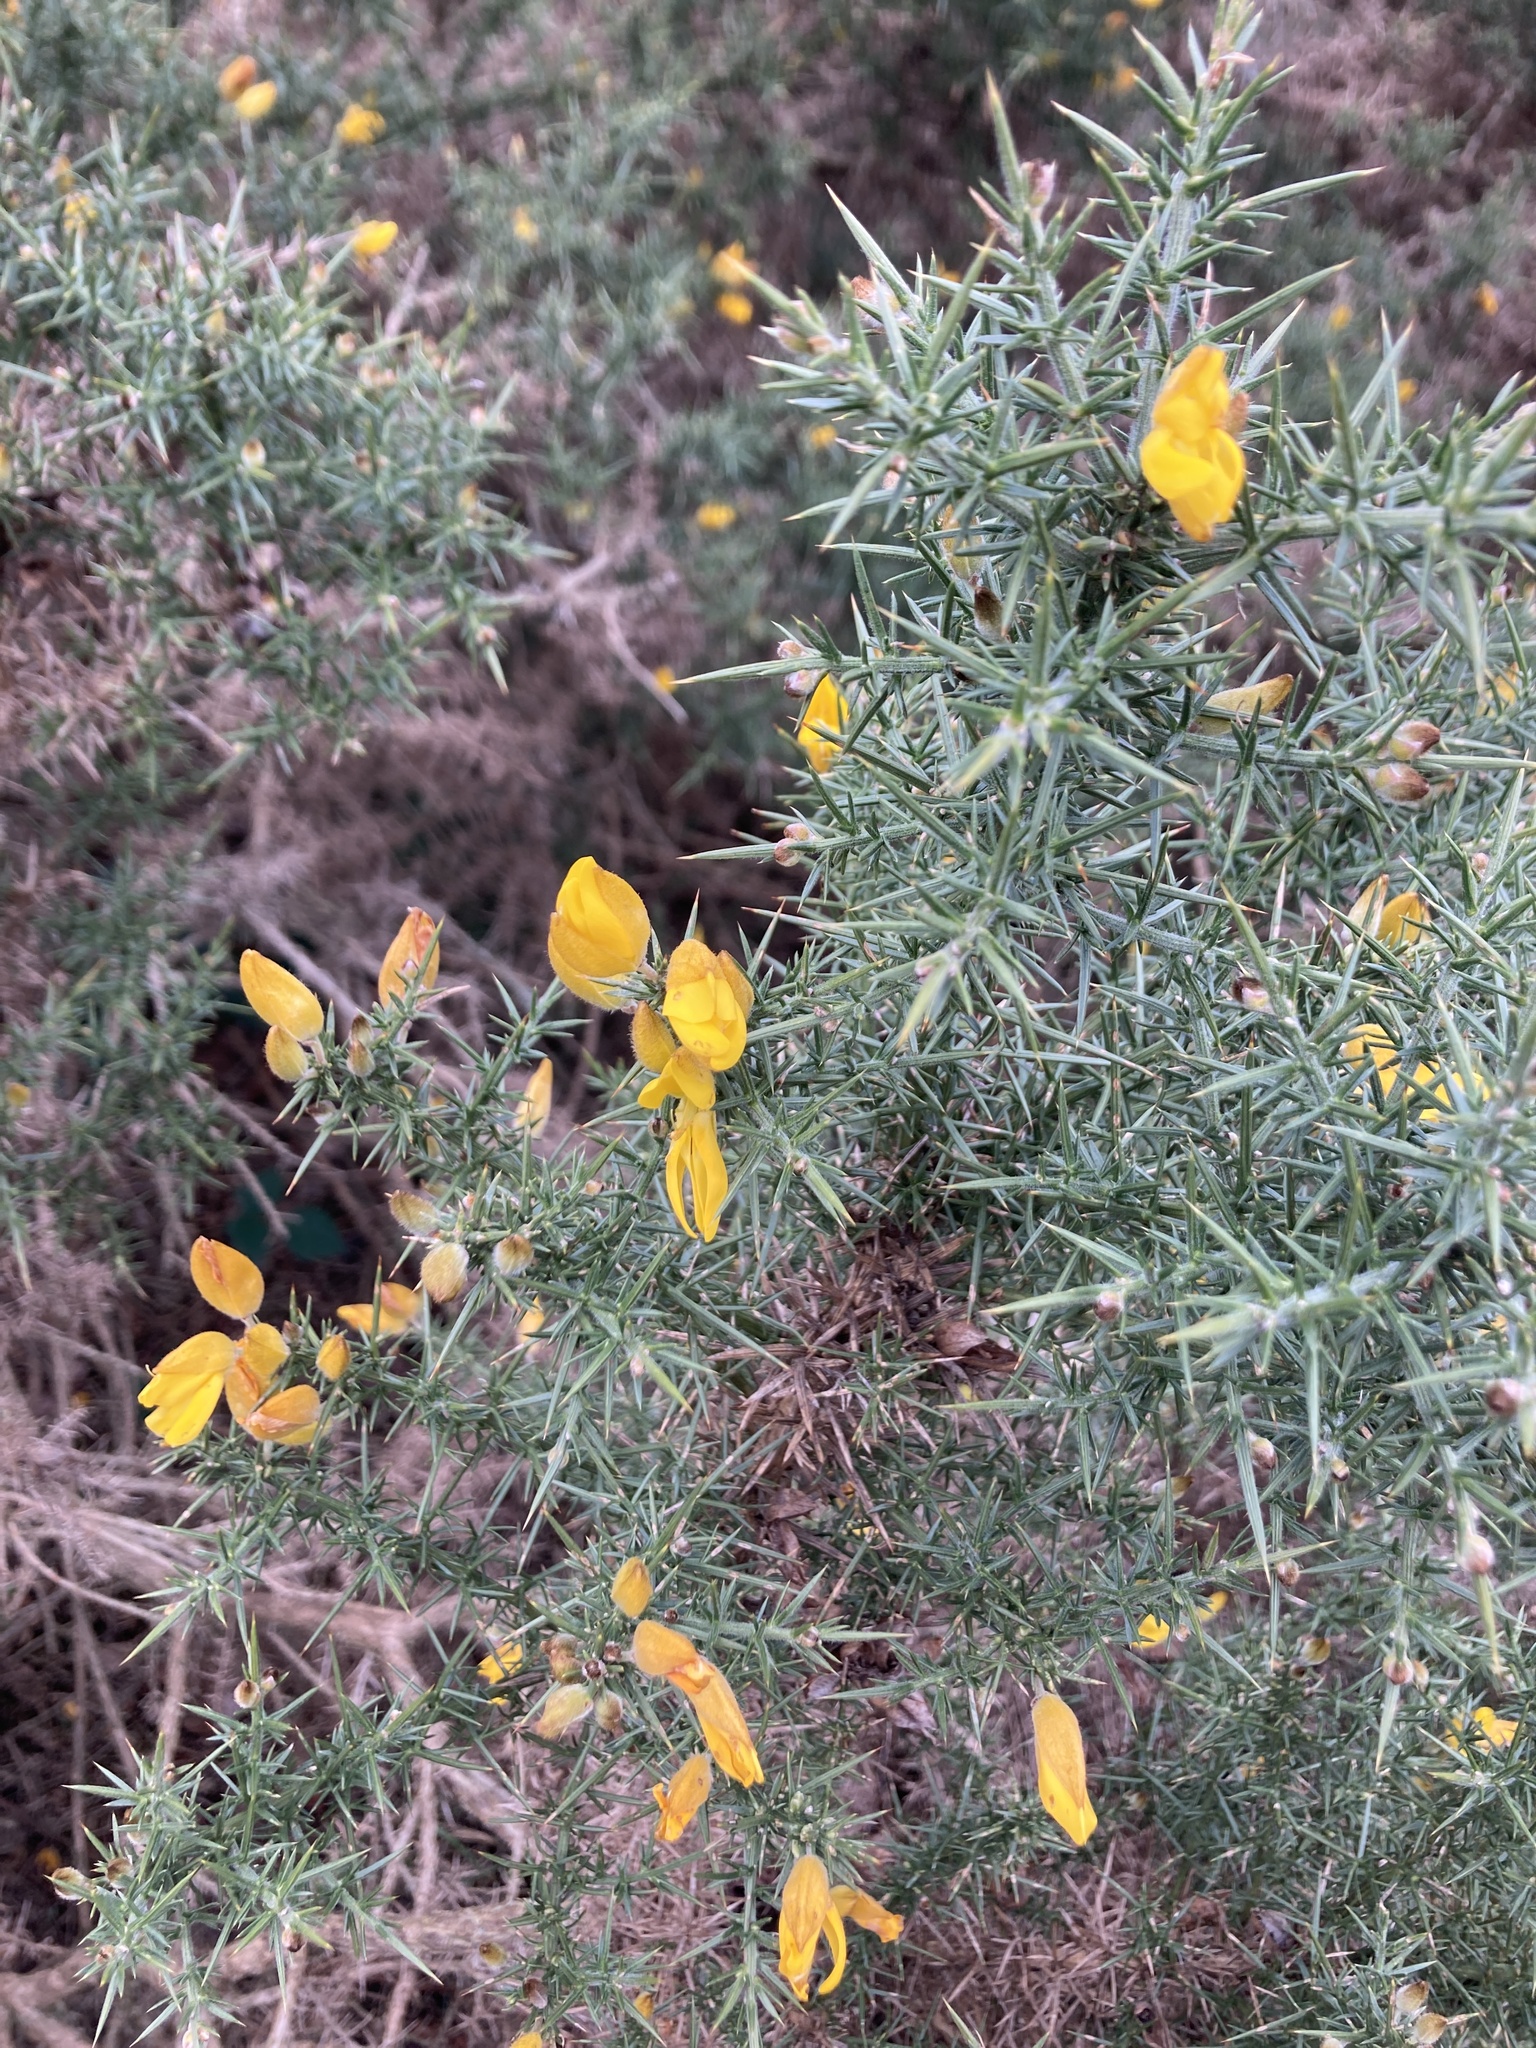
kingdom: Plantae
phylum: Tracheophyta
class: Magnoliopsida
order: Fabales
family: Fabaceae
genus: Ulex
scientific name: Ulex europaeus
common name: Common gorse
